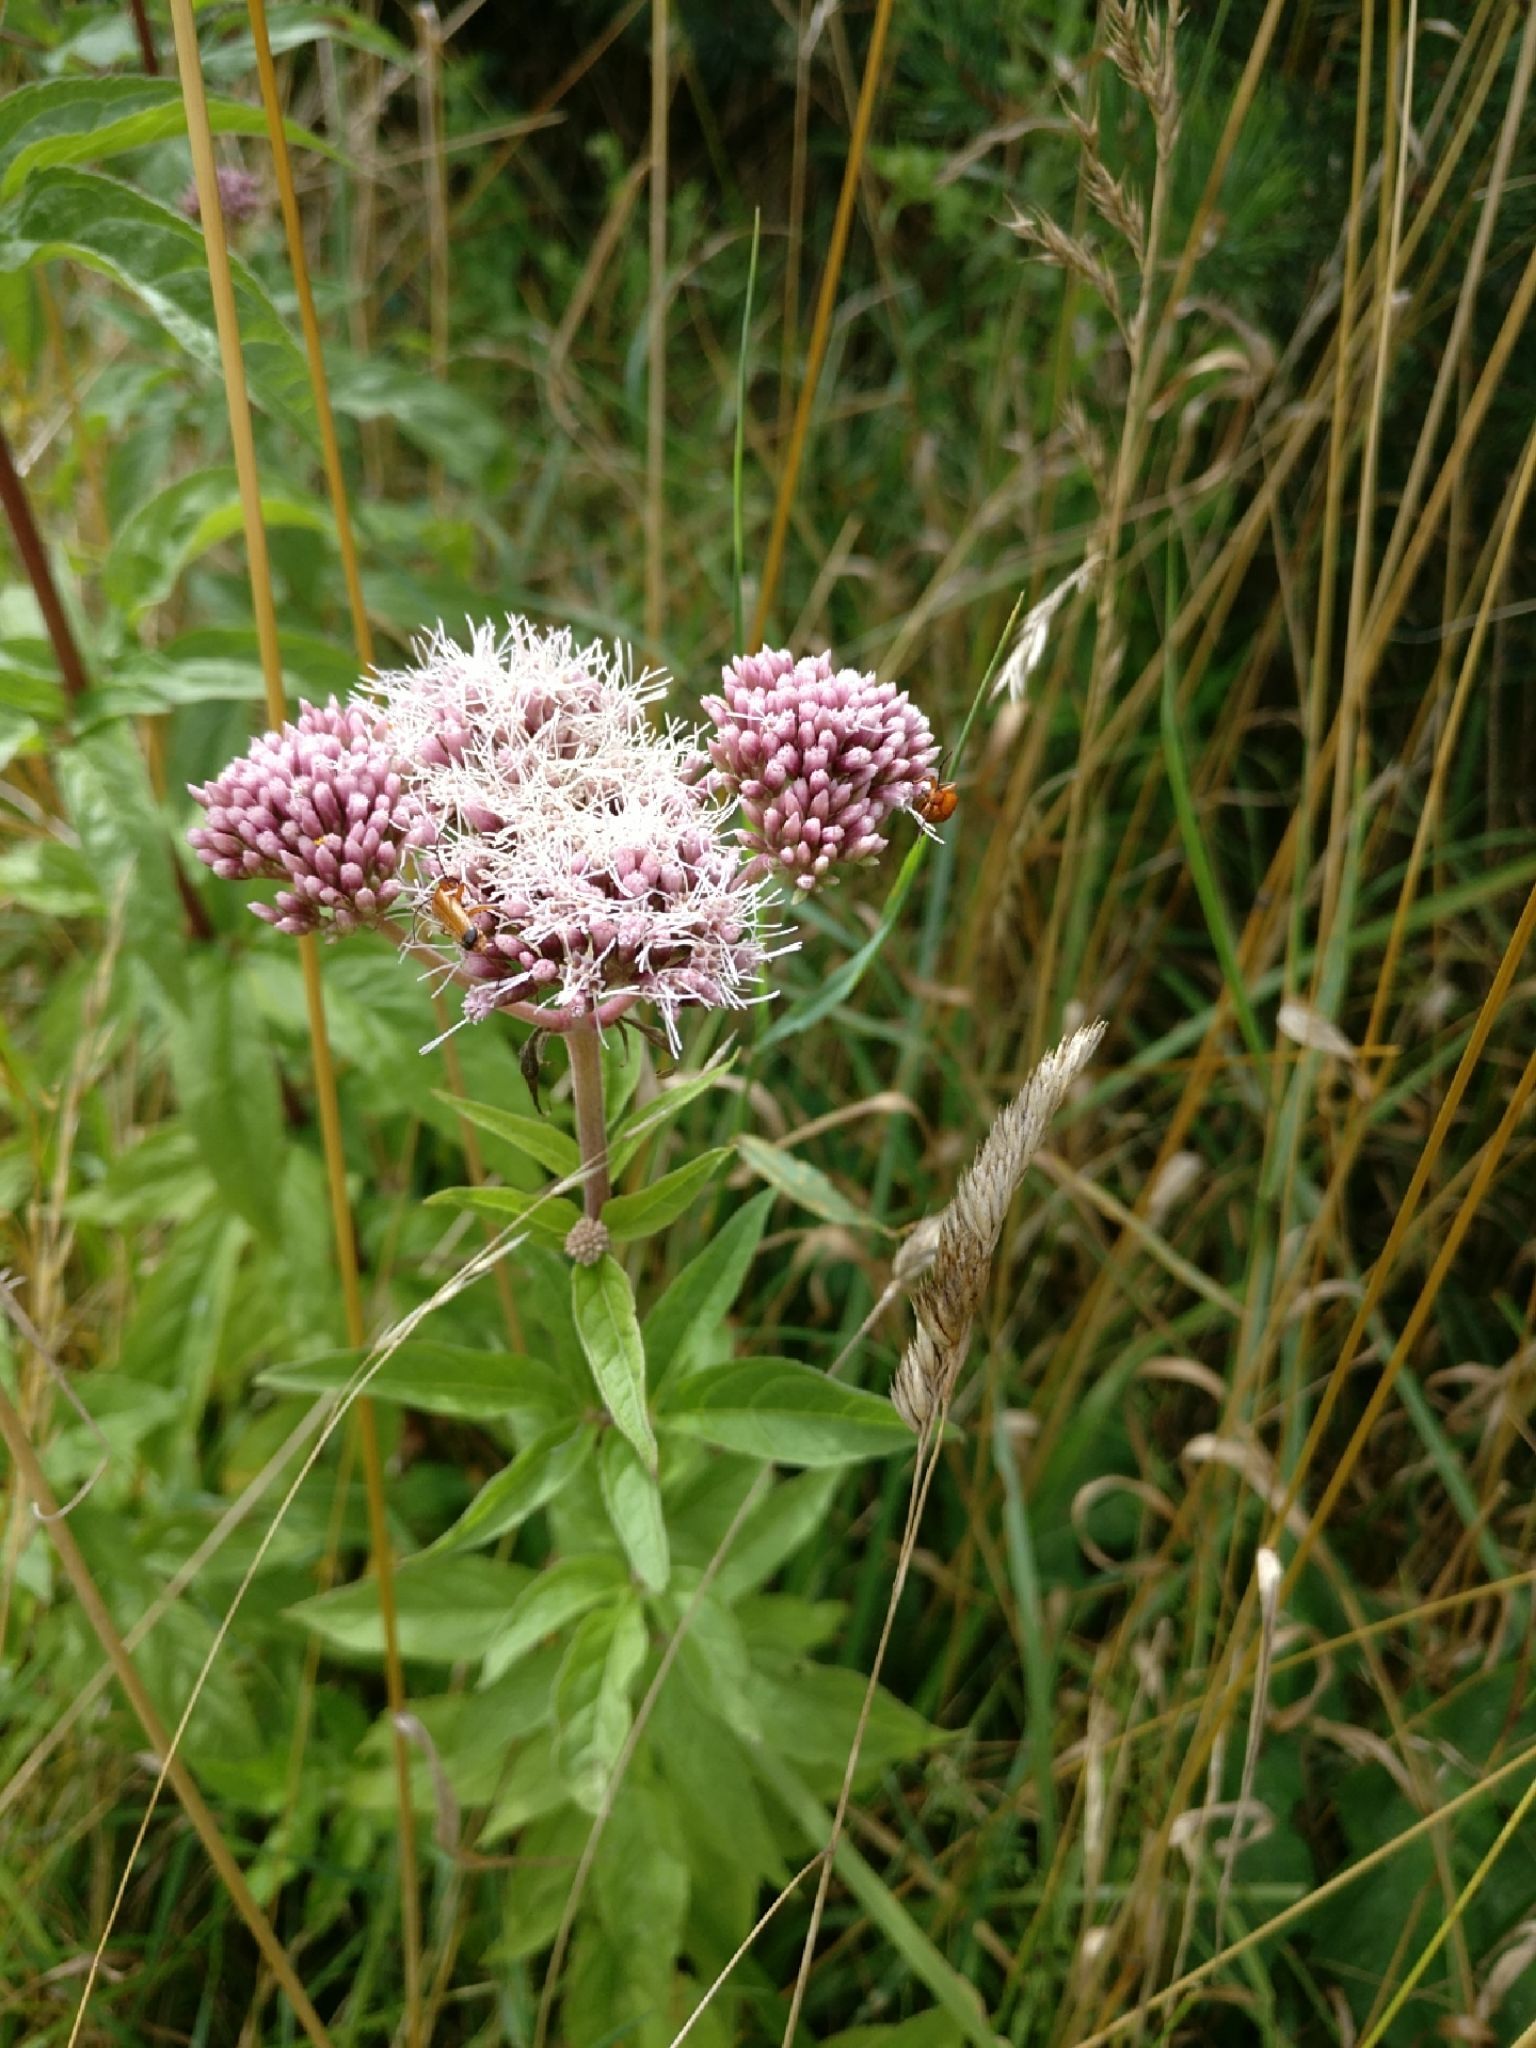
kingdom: Plantae
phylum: Tracheophyta
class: Magnoliopsida
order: Asterales
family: Asteraceae
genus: Eupatorium
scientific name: Eupatorium cannabinum
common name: Hemp-agrimony
